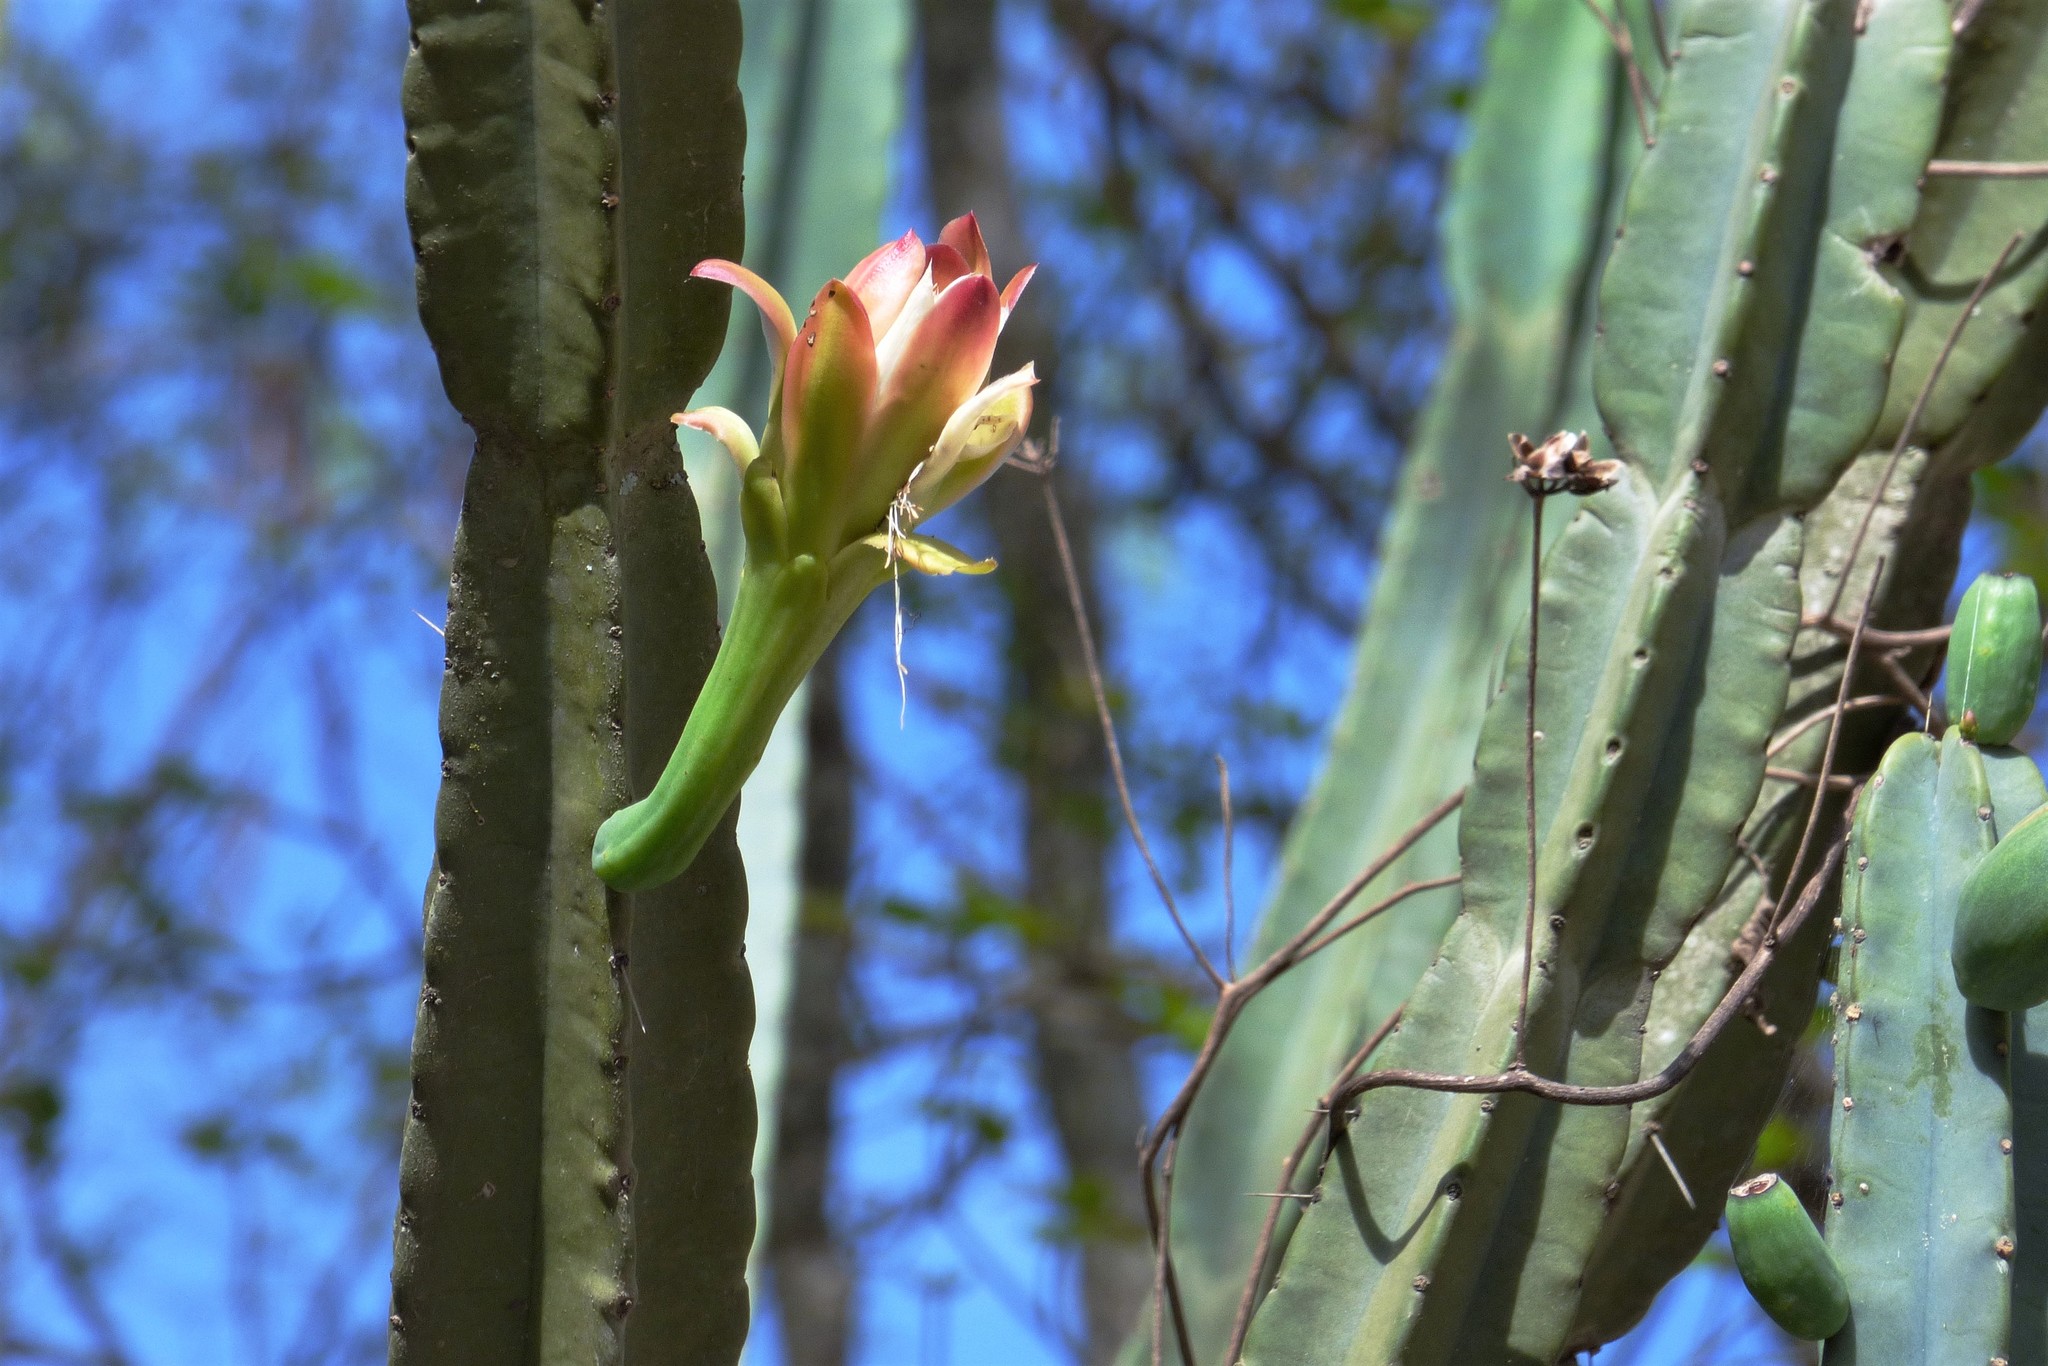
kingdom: Plantae
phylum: Tracheophyta
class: Magnoliopsida
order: Caryophyllales
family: Cactaceae
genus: Cereus
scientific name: Cereus hankeanus
